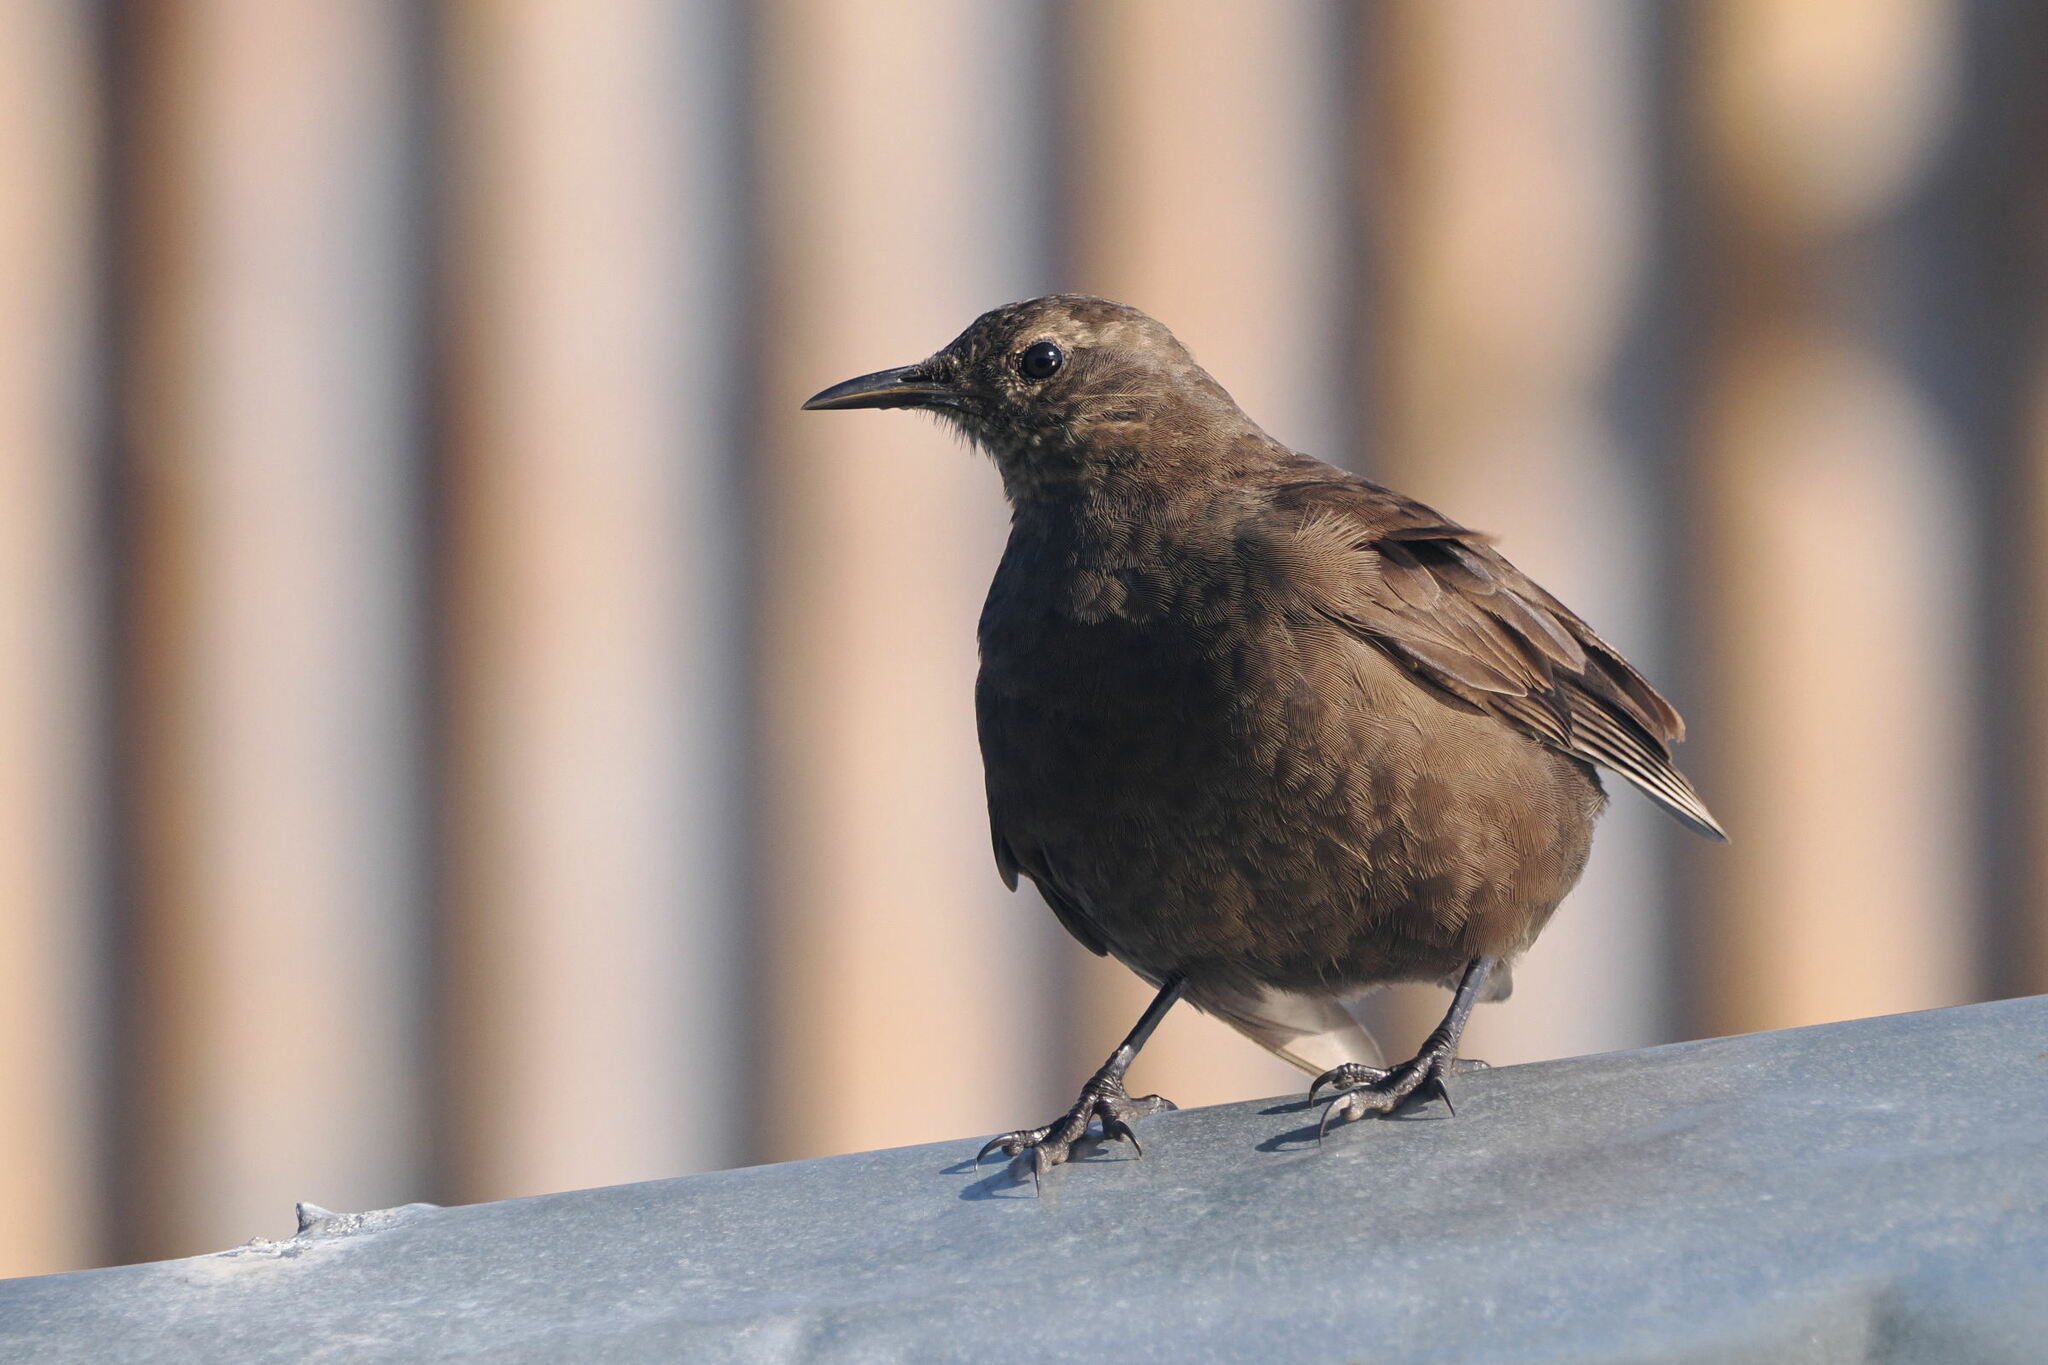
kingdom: Animalia
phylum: Chordata
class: Aves
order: Passeriformes
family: Furnariidae
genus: Cinclodes
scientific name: Cinclodes antarcticus
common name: Blackish cinclodes
